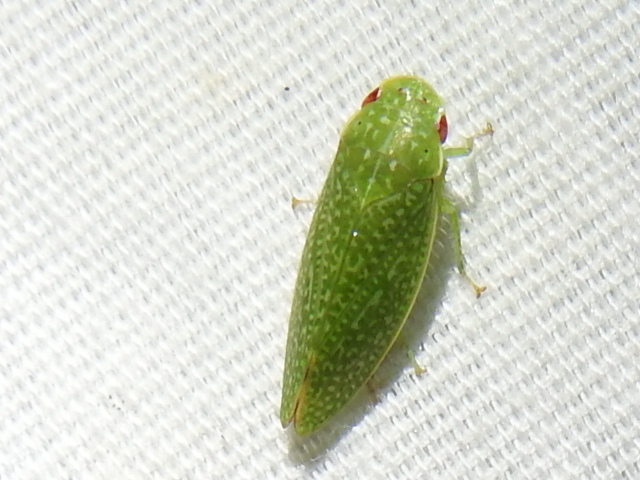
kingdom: Animalia
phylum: Arthropoda
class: Insecta
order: Hemiptera
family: Cicadellidae
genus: Rugosana
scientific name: Rugosana querci
